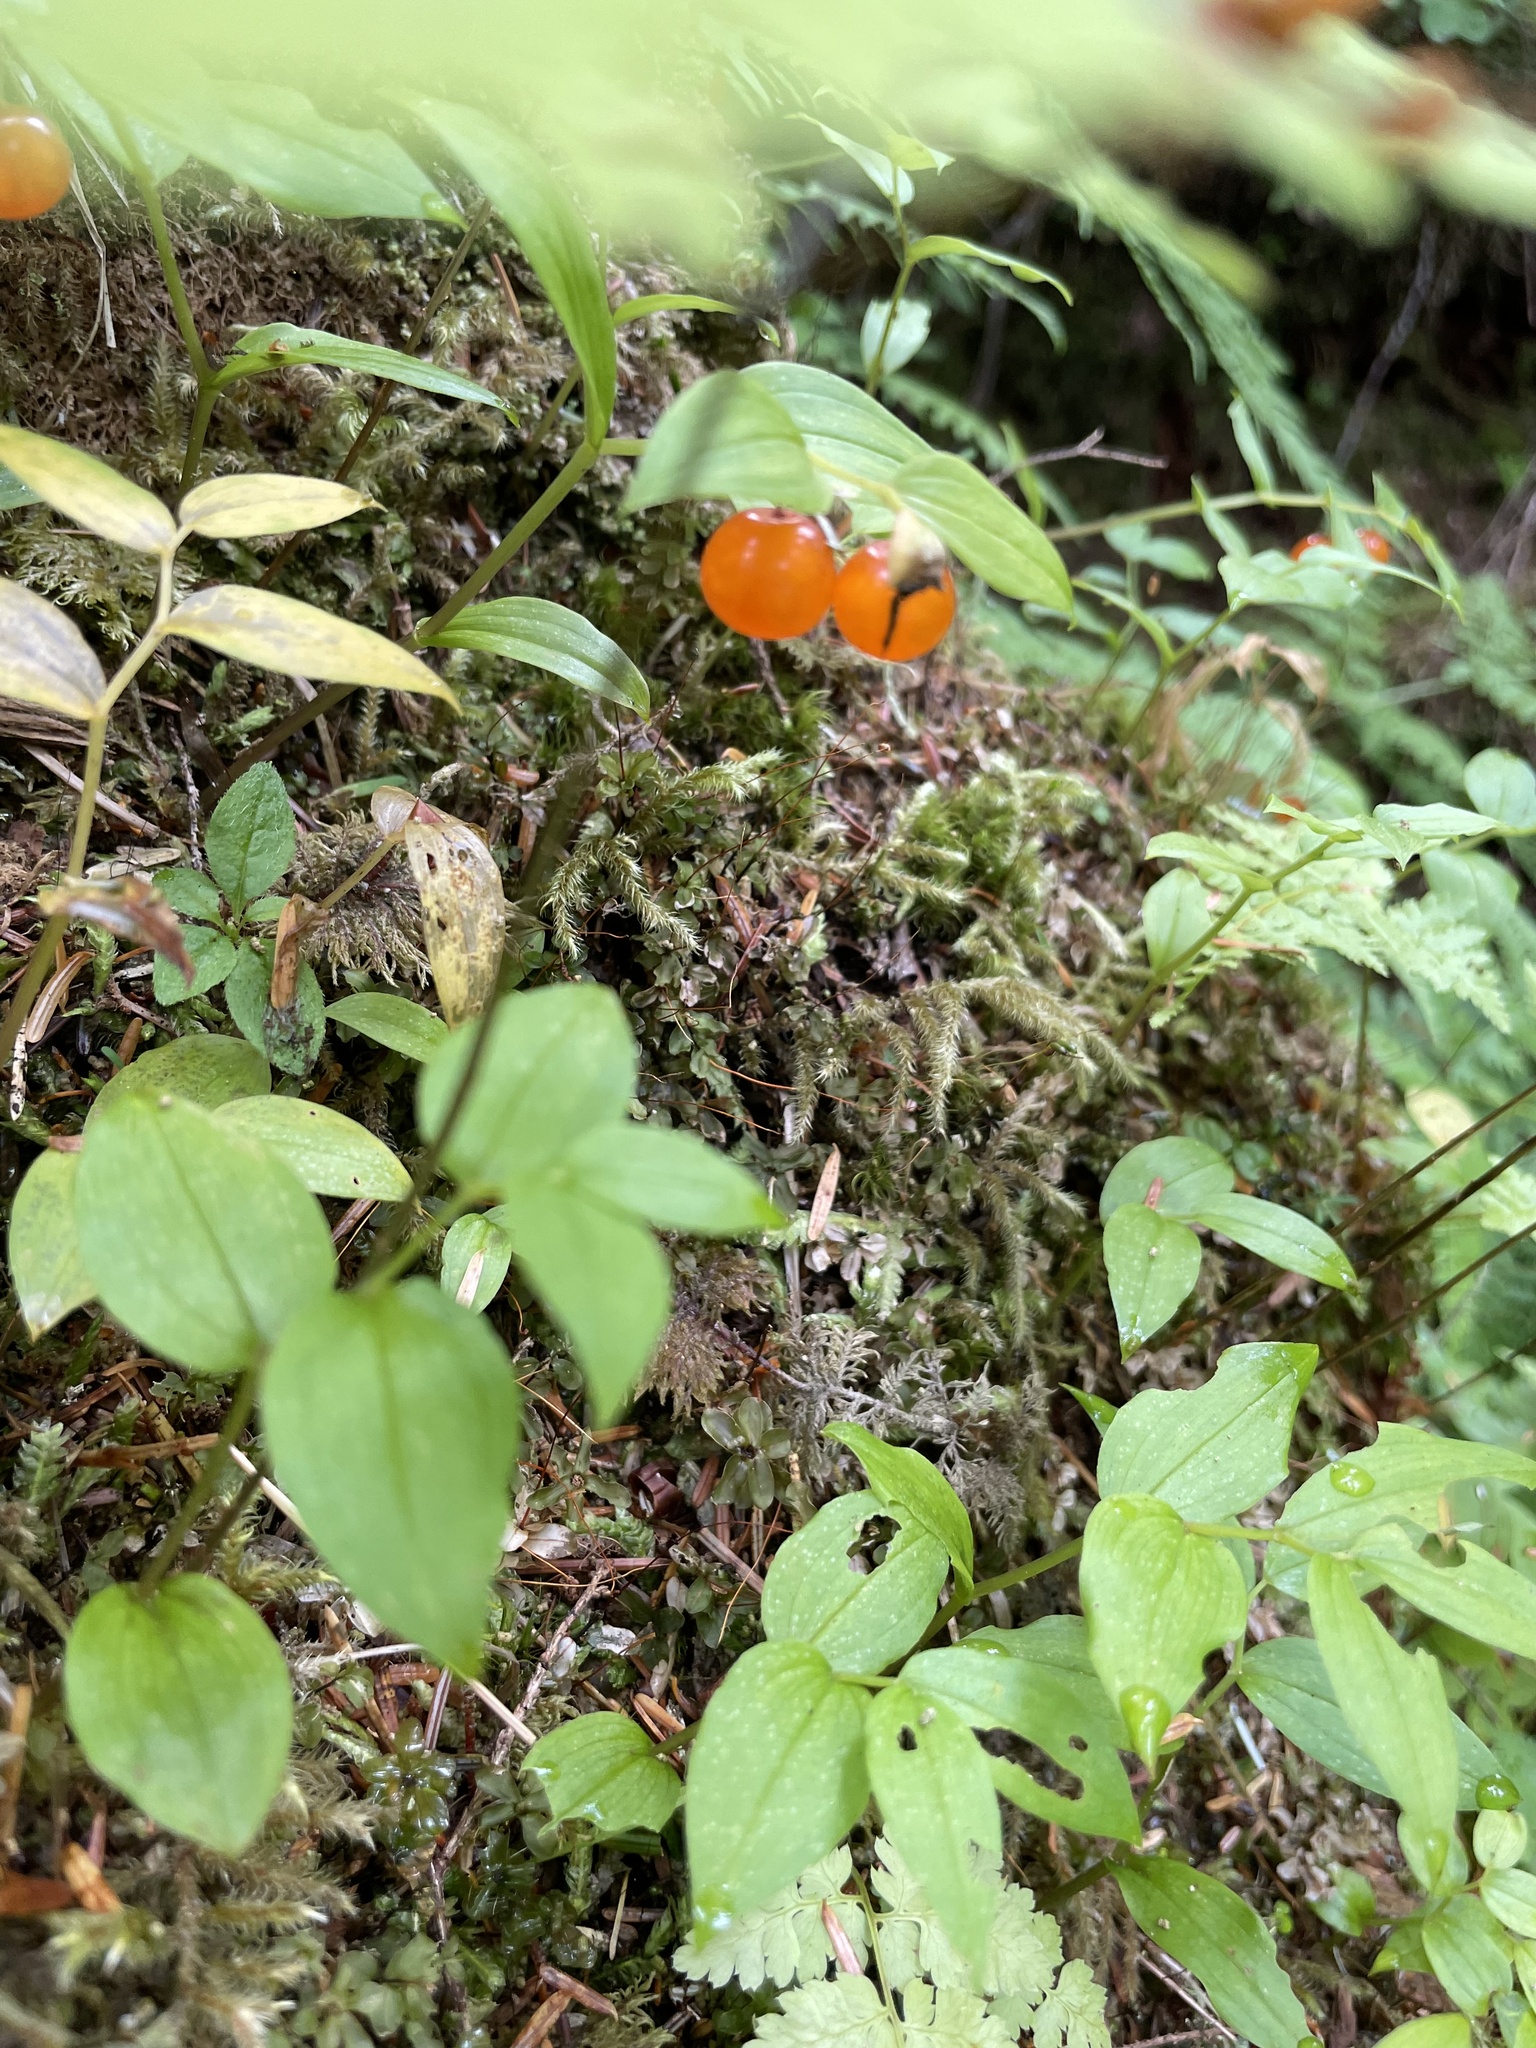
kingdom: Plantae
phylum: Tracheophyta
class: Liliopsida
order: Liliales
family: Liliaceae
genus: Streptopus
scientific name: Streptopus streptopoides
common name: Small twisted-stalk
